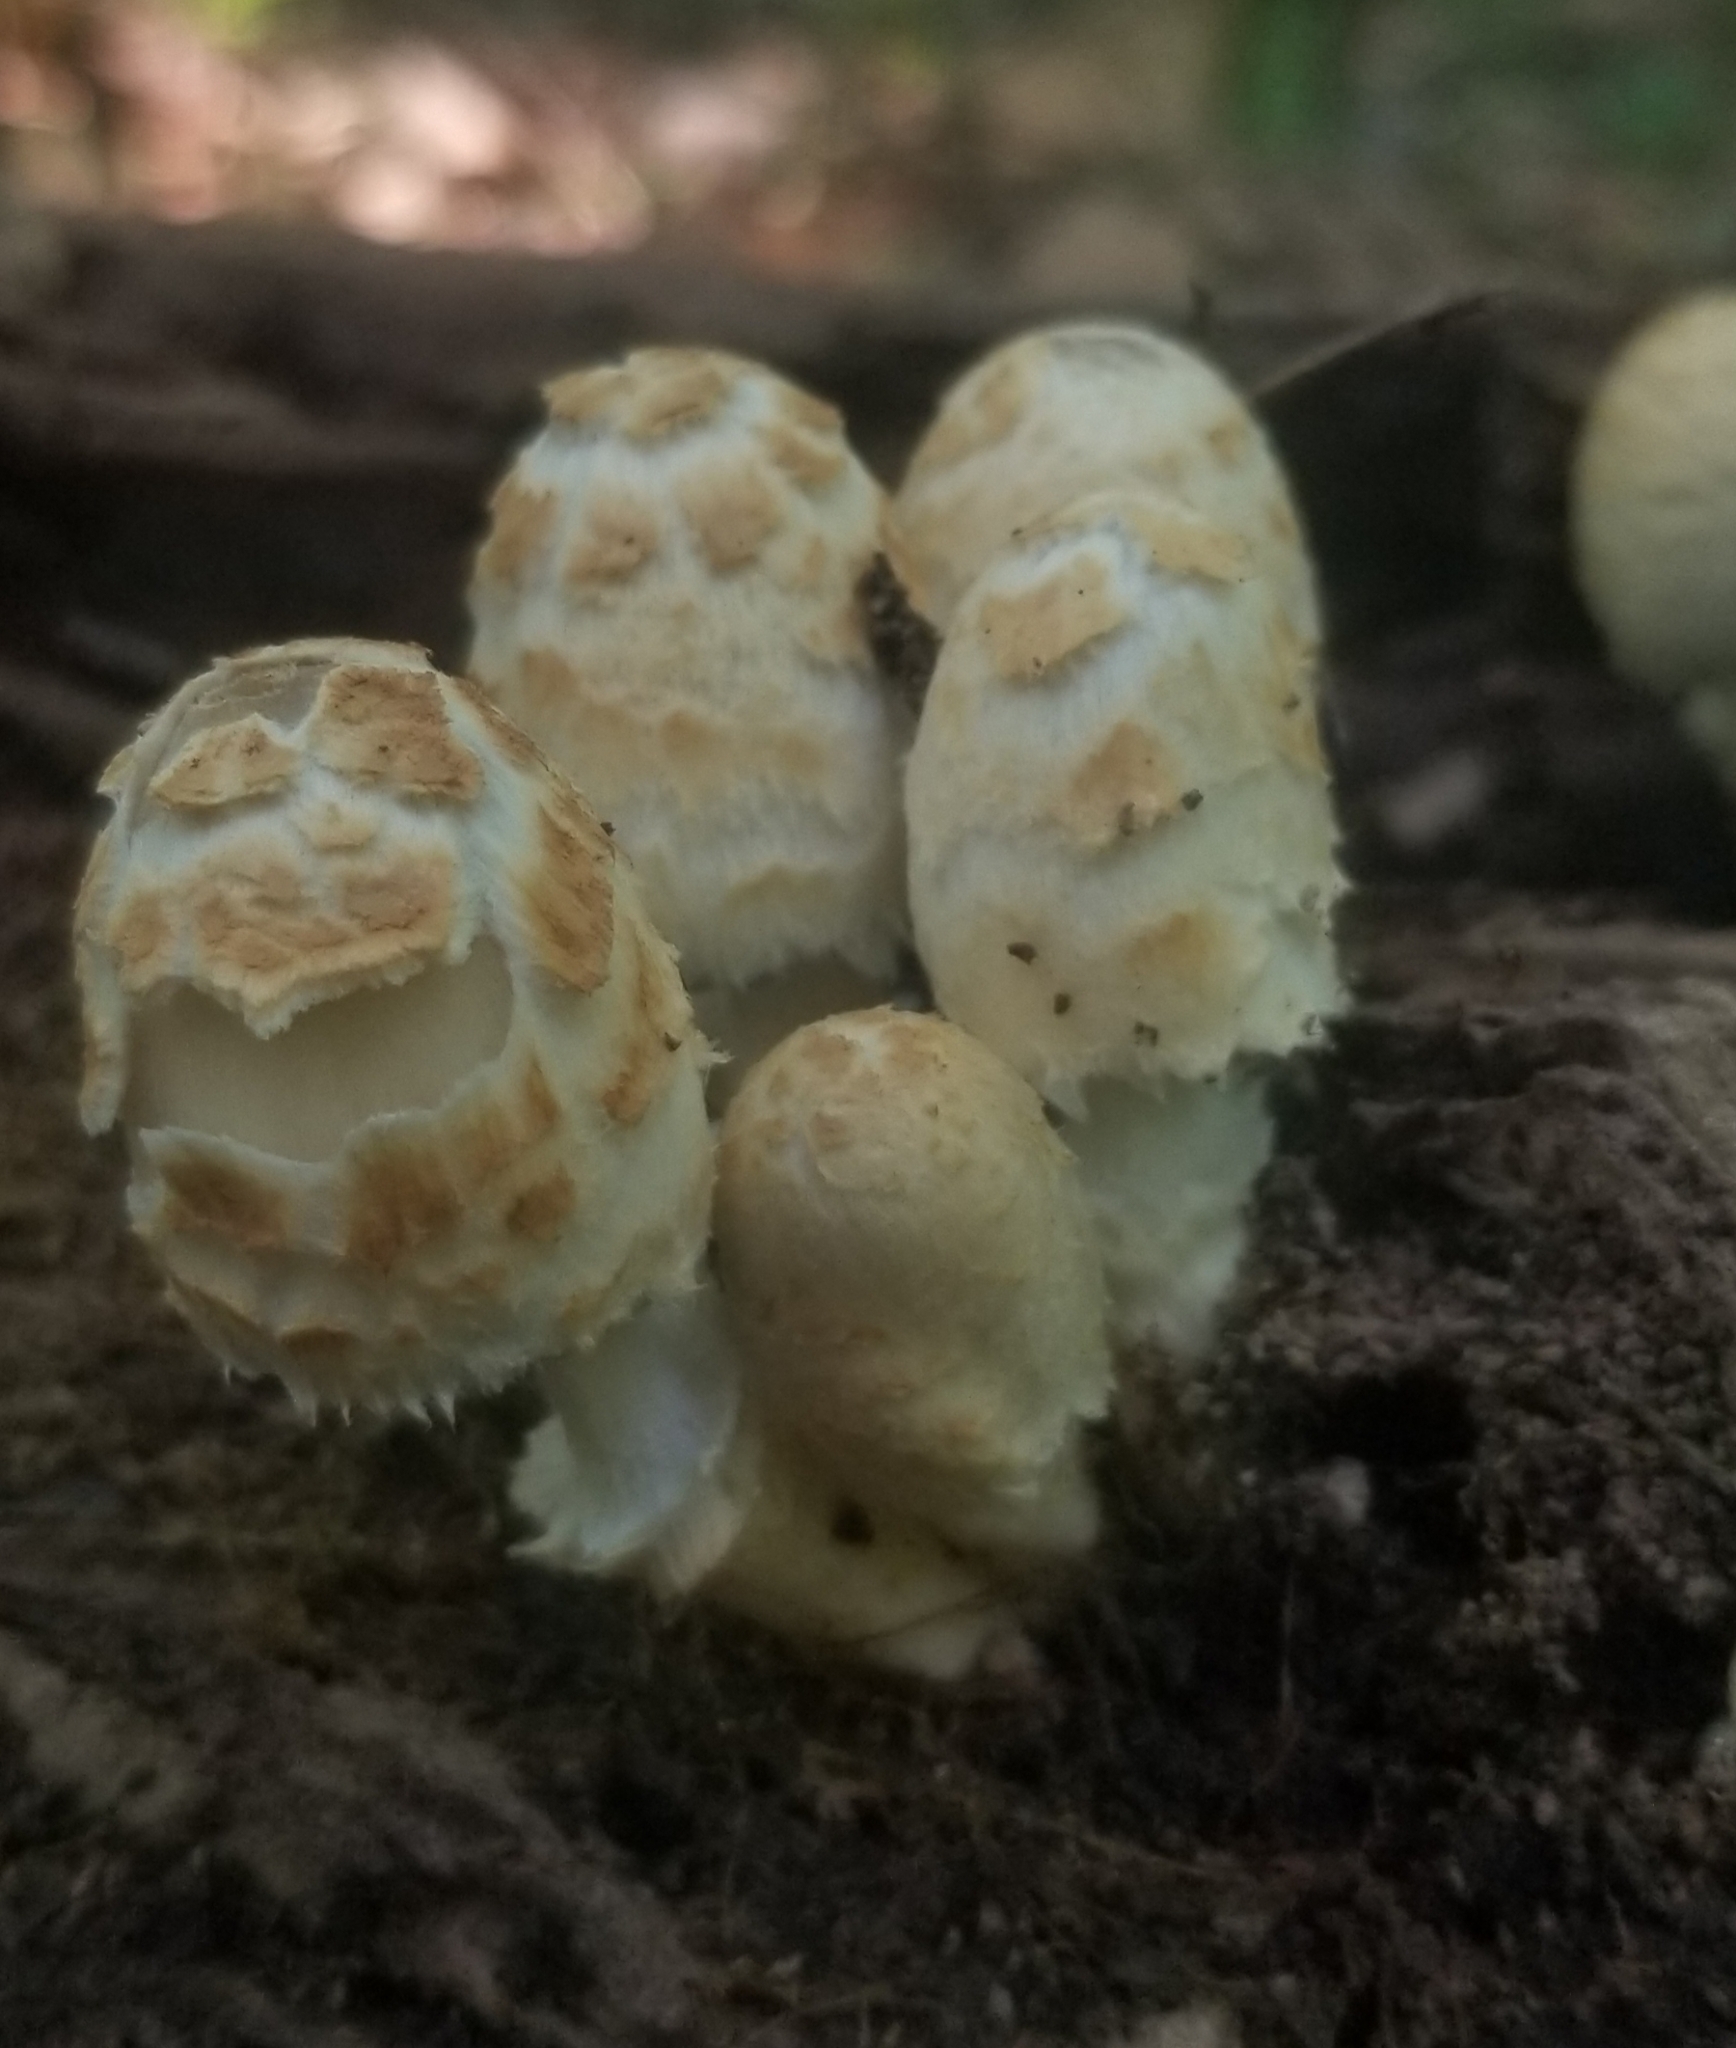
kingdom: Fungi
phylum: Basidiomycota
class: Agaricomycetes
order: Agaricales
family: Psathyrellaceae
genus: Coprinopsis
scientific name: Coprinopsis variegata
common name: Scaly ink cap
